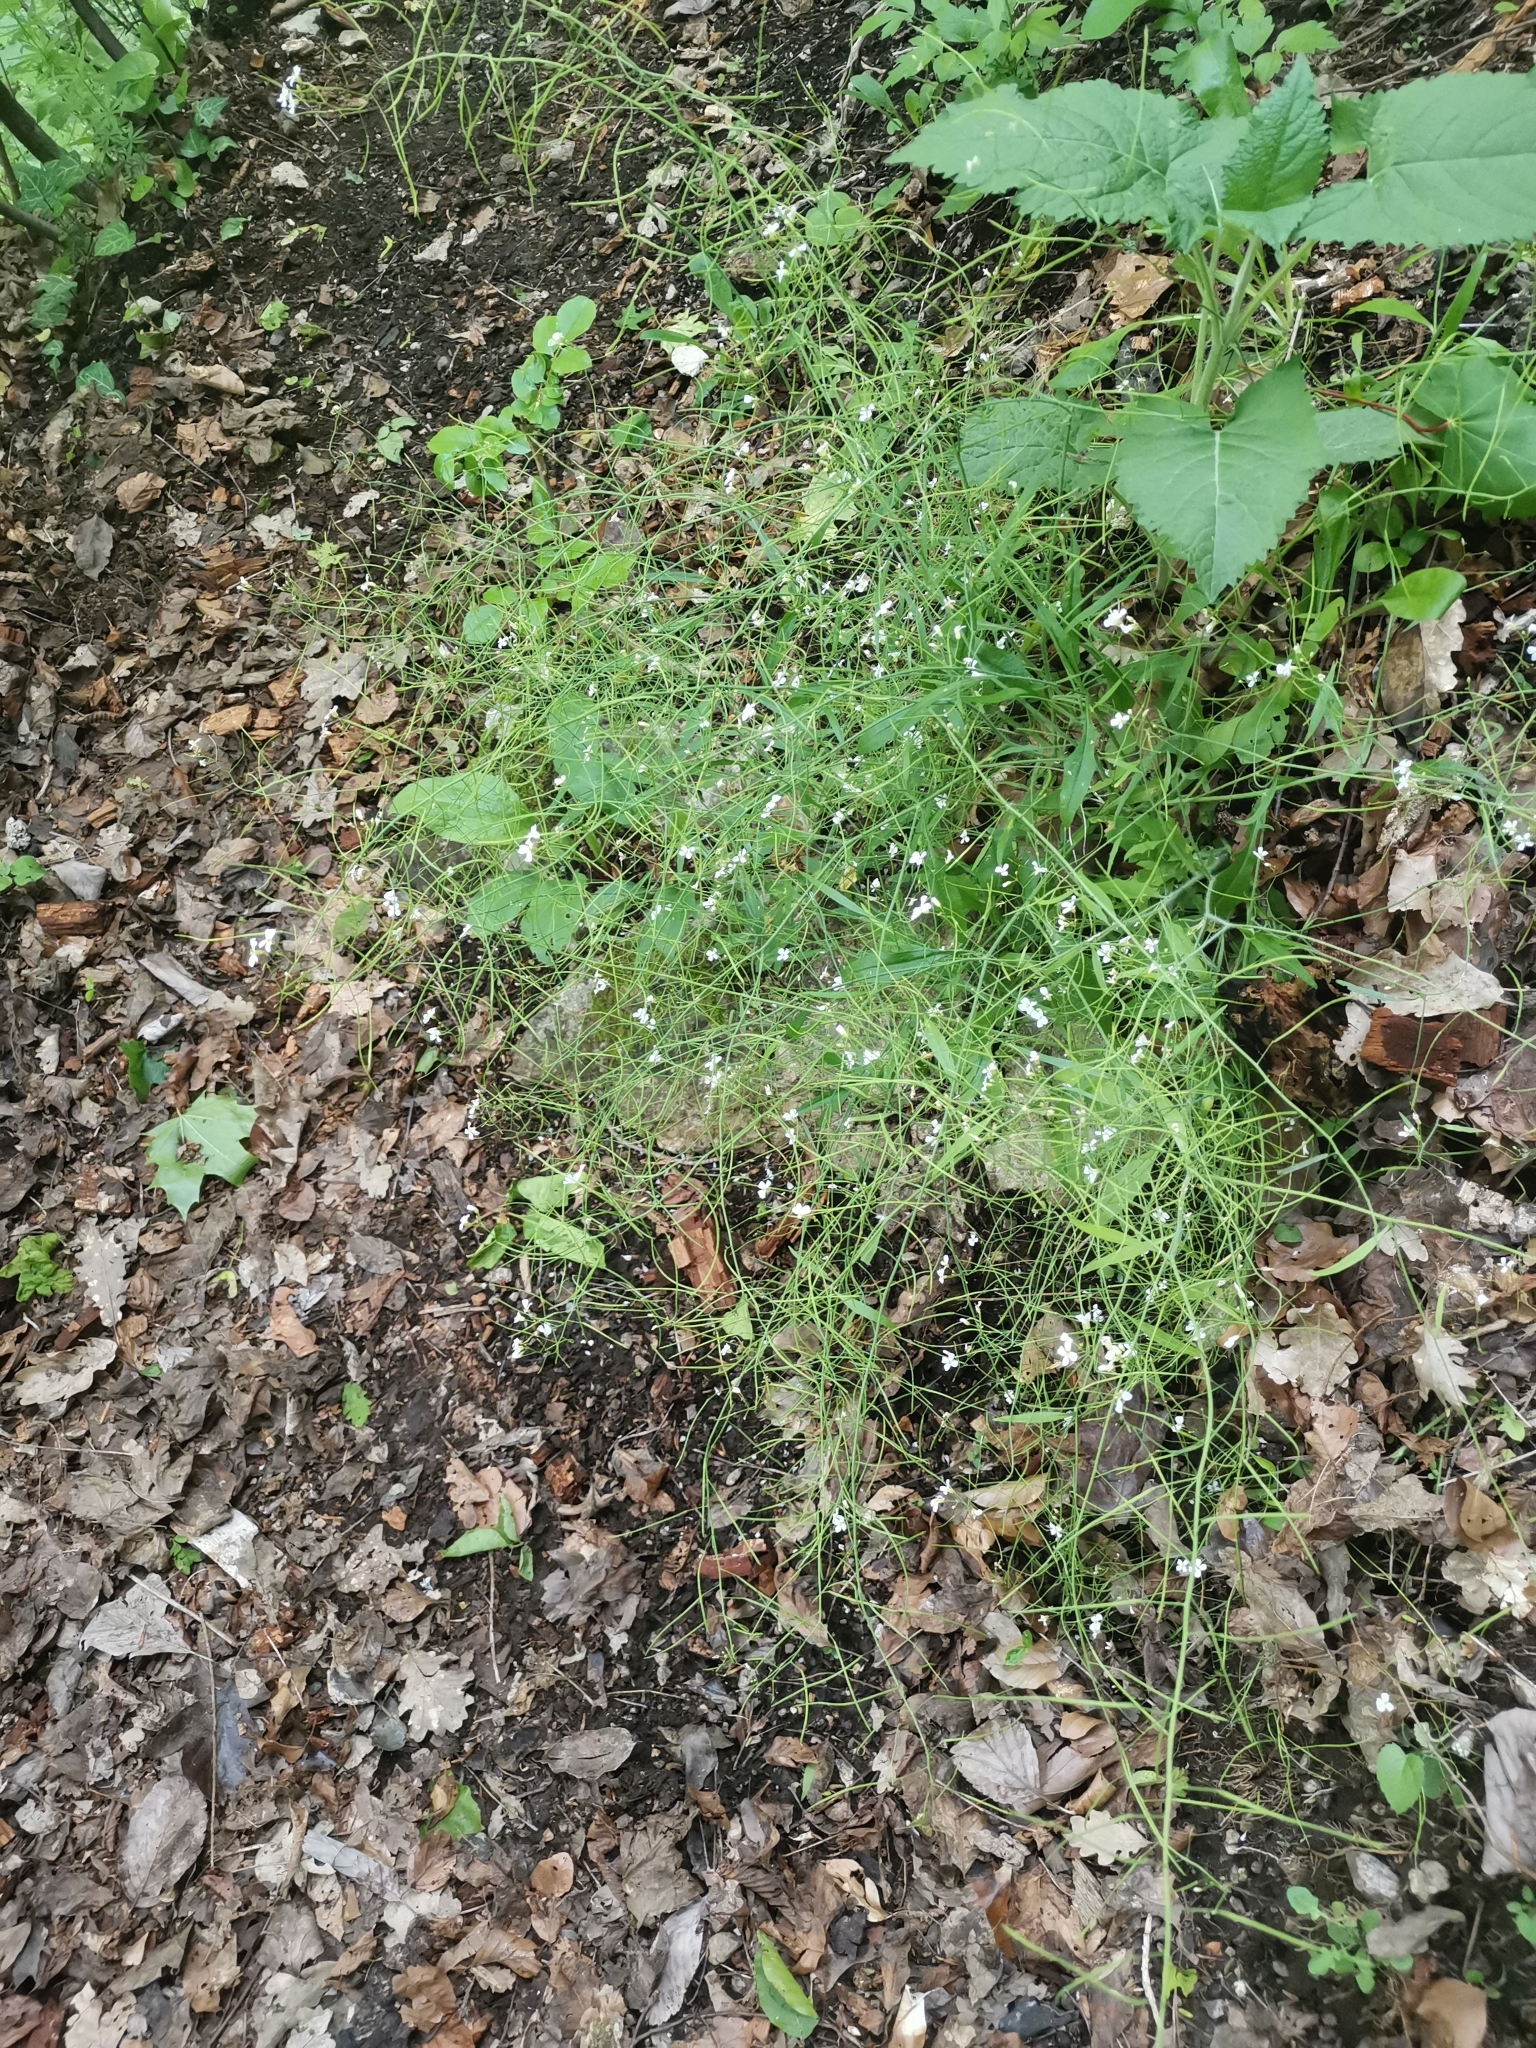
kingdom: Plantae
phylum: Tracheophyta
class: Magnoliopsida
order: Brassicales
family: Brassicaceae
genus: Arabidopsis
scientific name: Arabidopsis halleri
